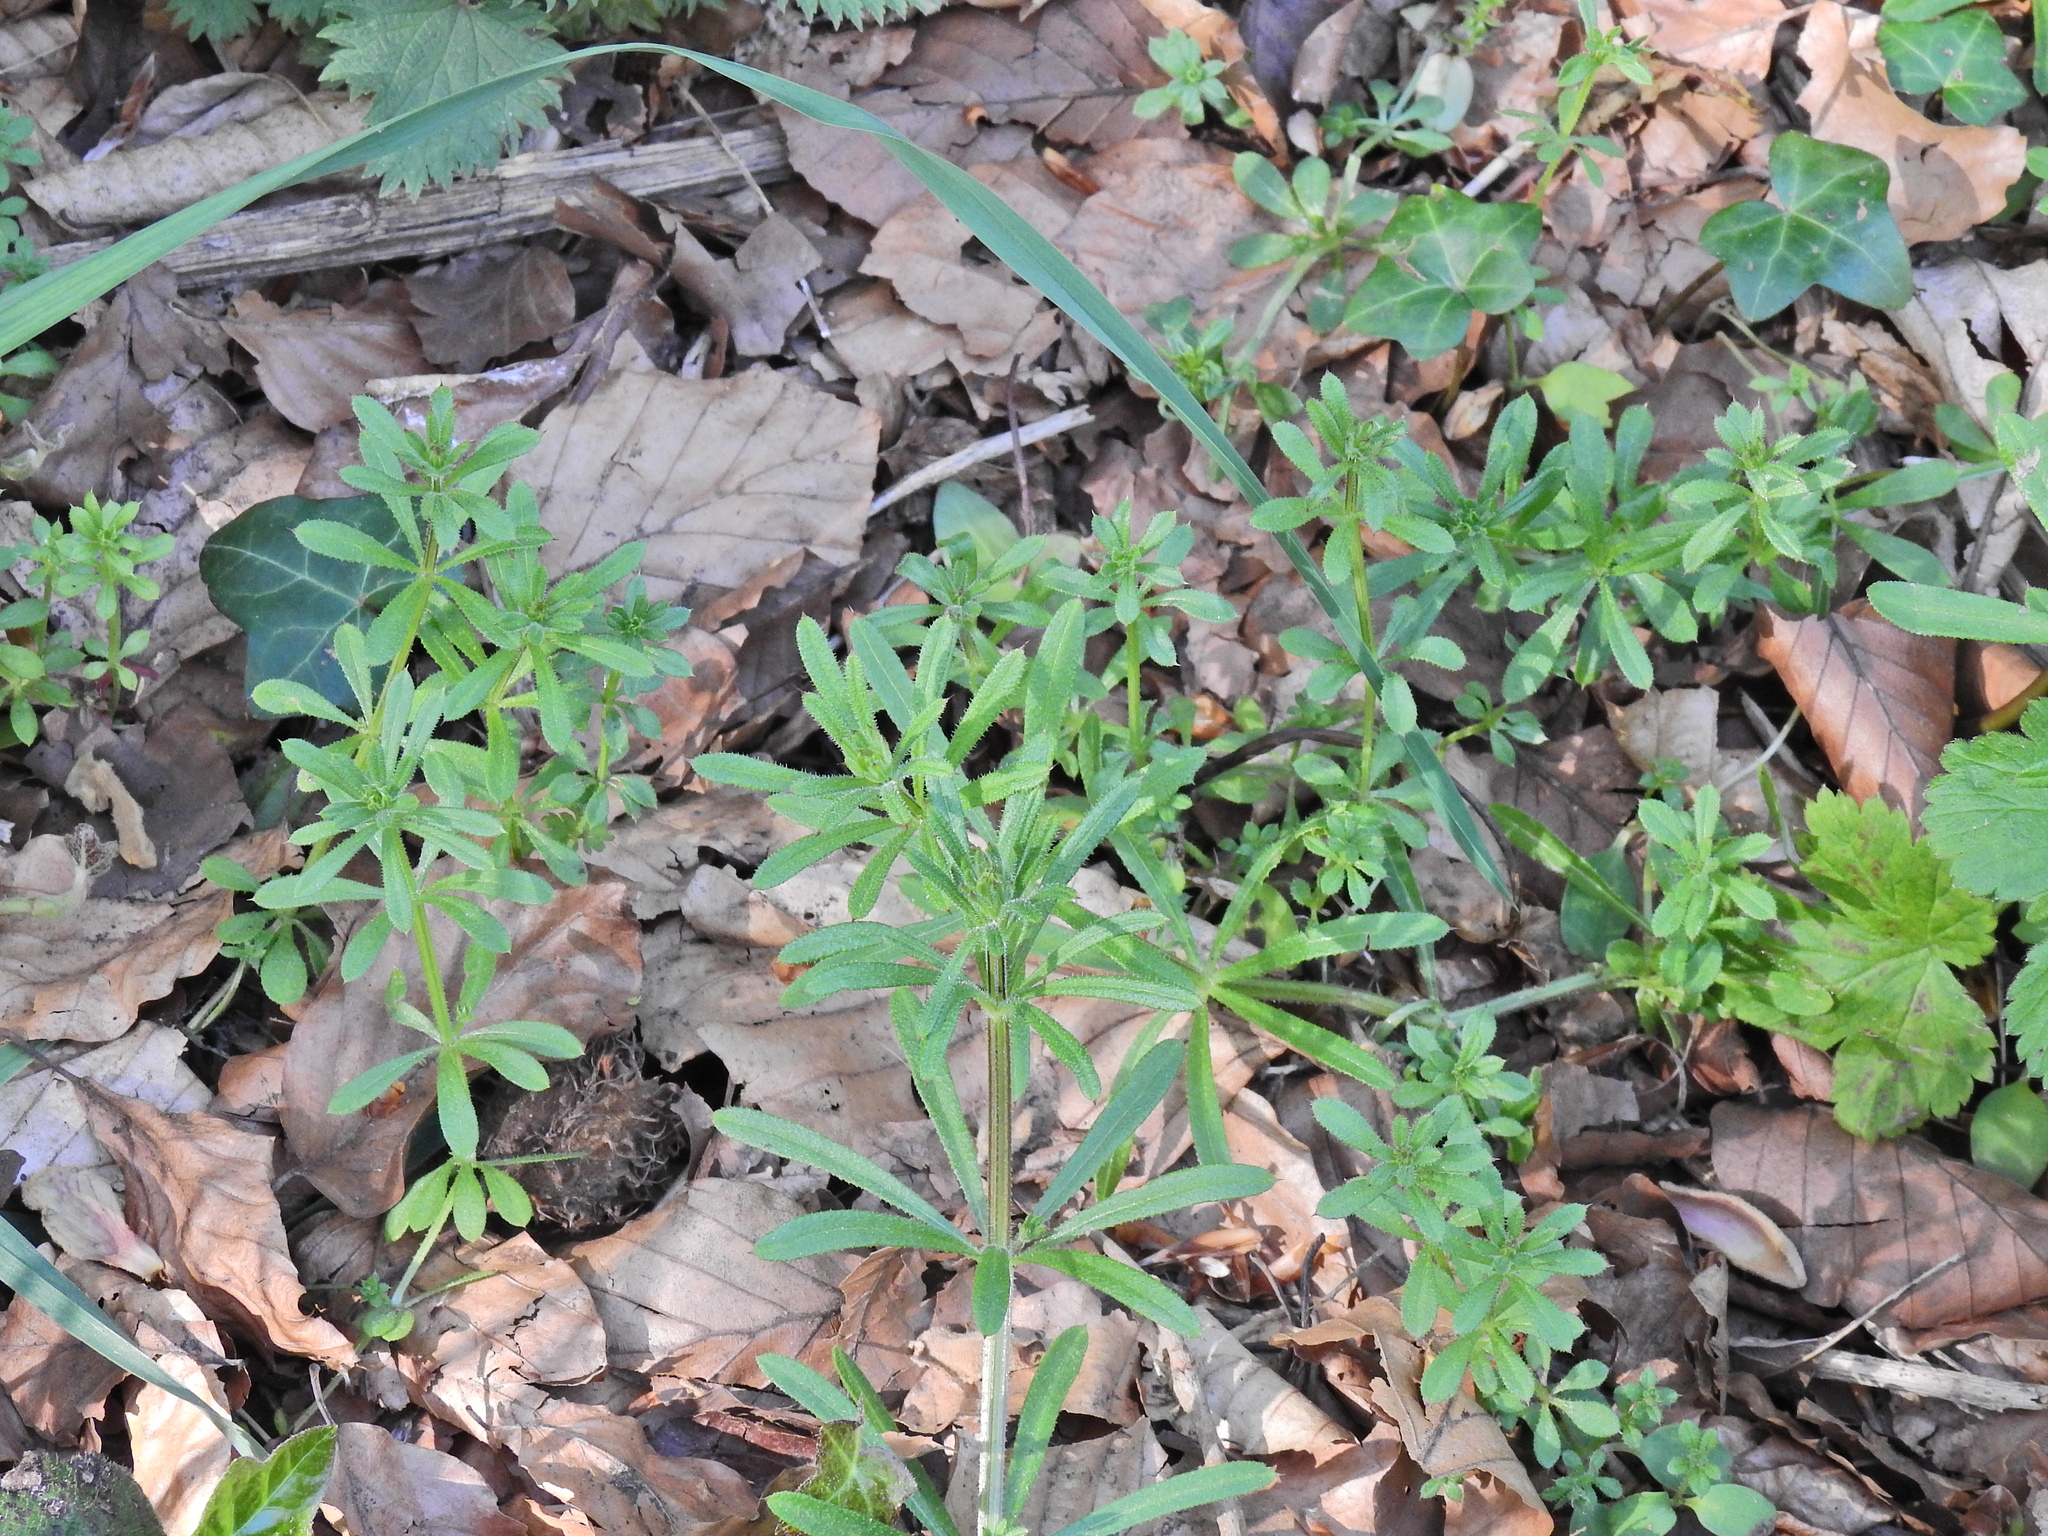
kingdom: Plantae
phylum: Tracheophyta
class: Magnoliopsida
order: Gentianales
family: Rubiaceae
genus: Galium
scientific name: Galium aparine
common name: Cleavers
